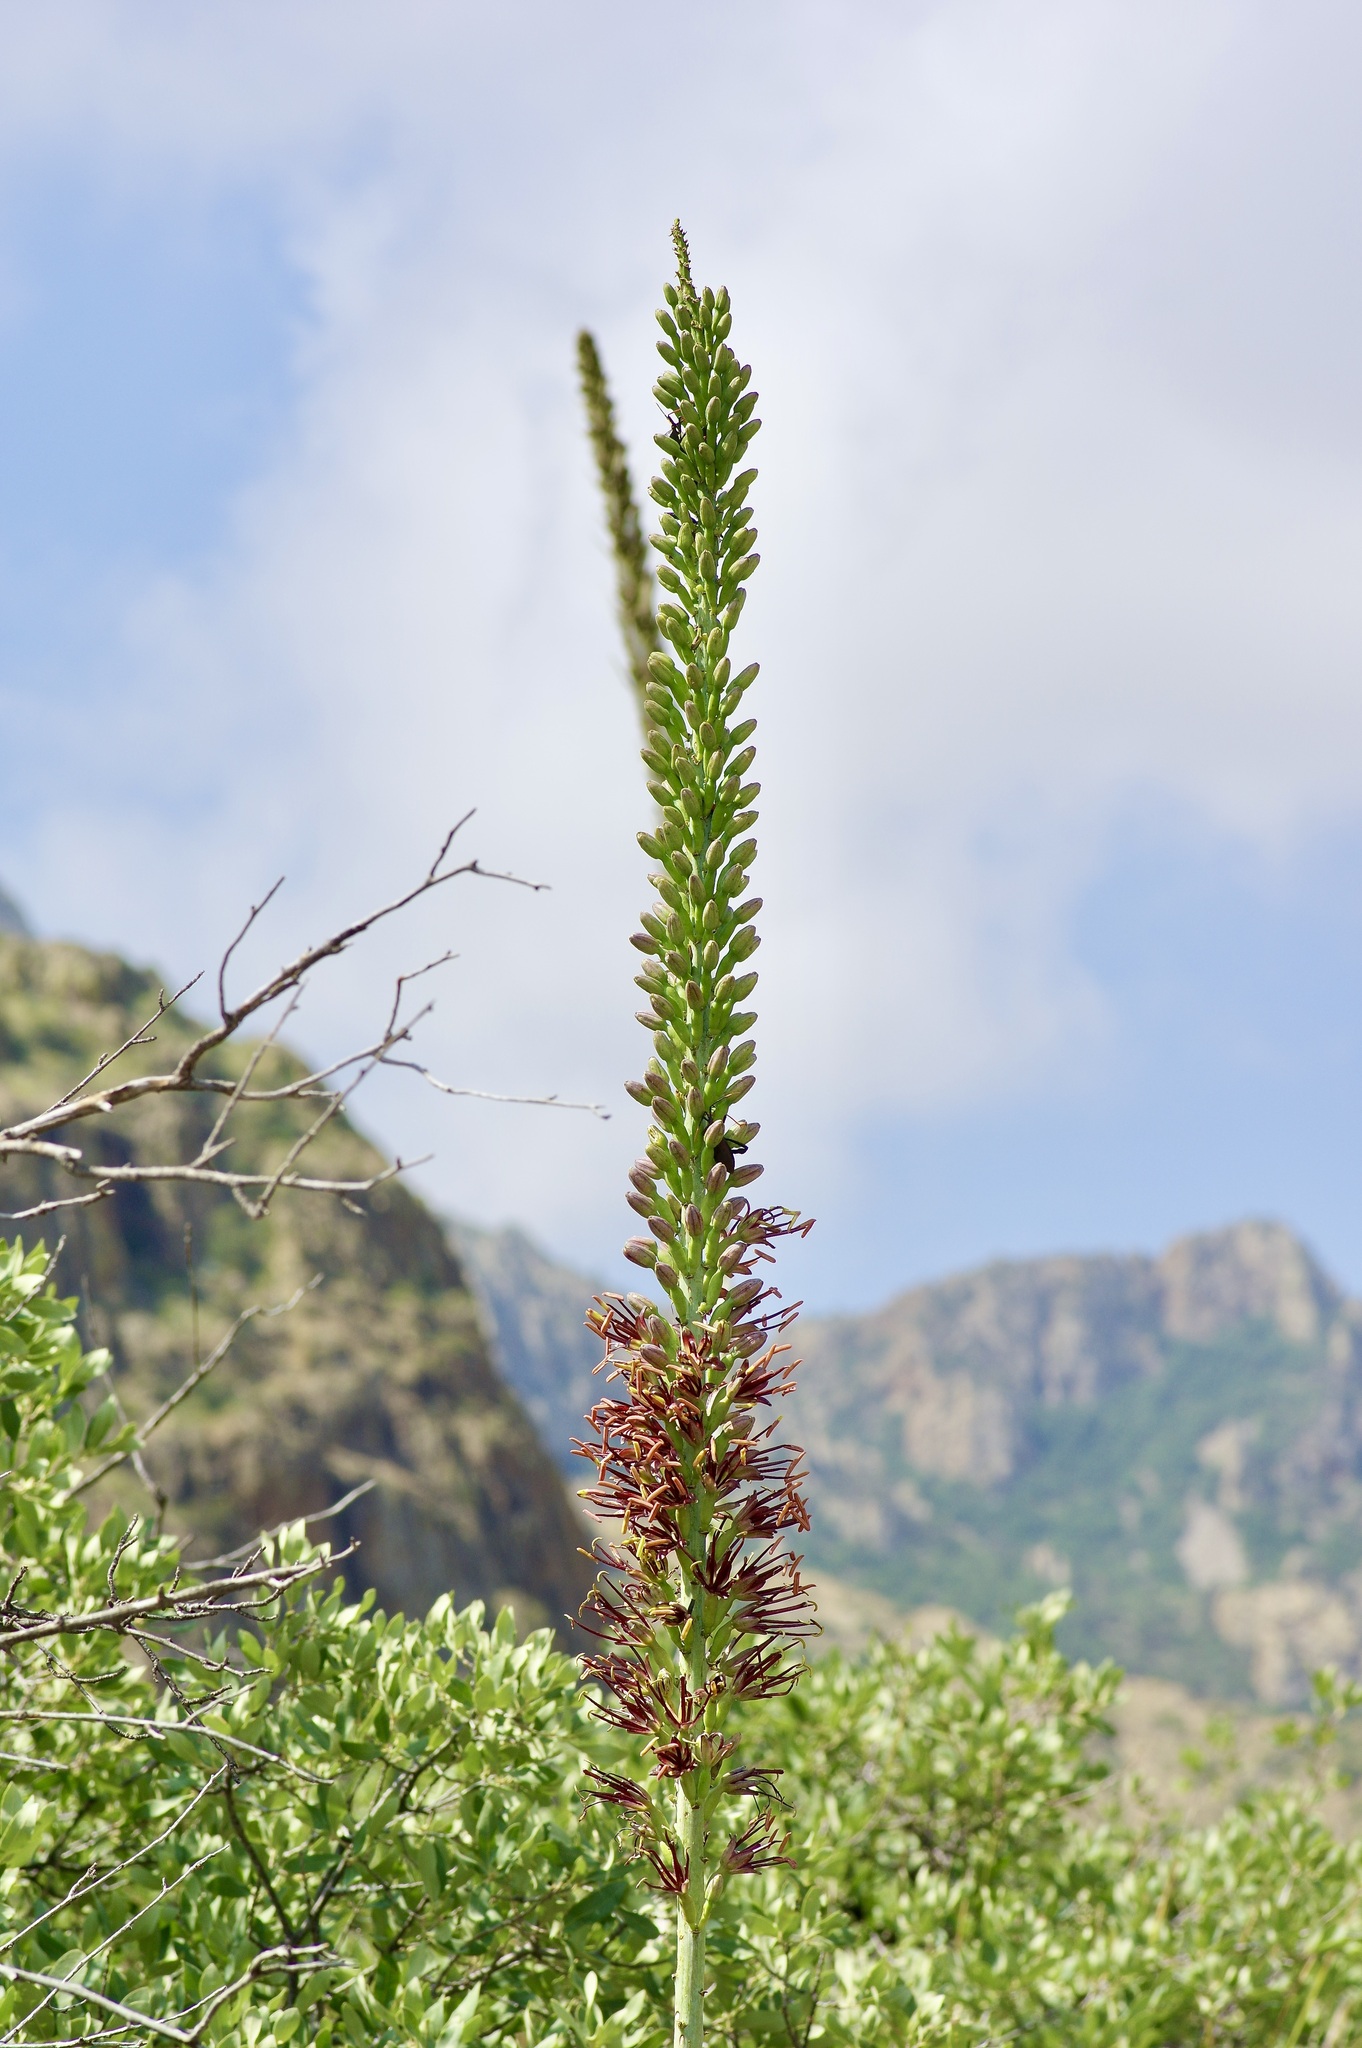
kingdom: Plantae
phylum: Tracheophyta
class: Liliopsida
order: Asparagales
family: Asparagaceae
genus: Agave
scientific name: Agave lechuguilla
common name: Lecheguilla agave
